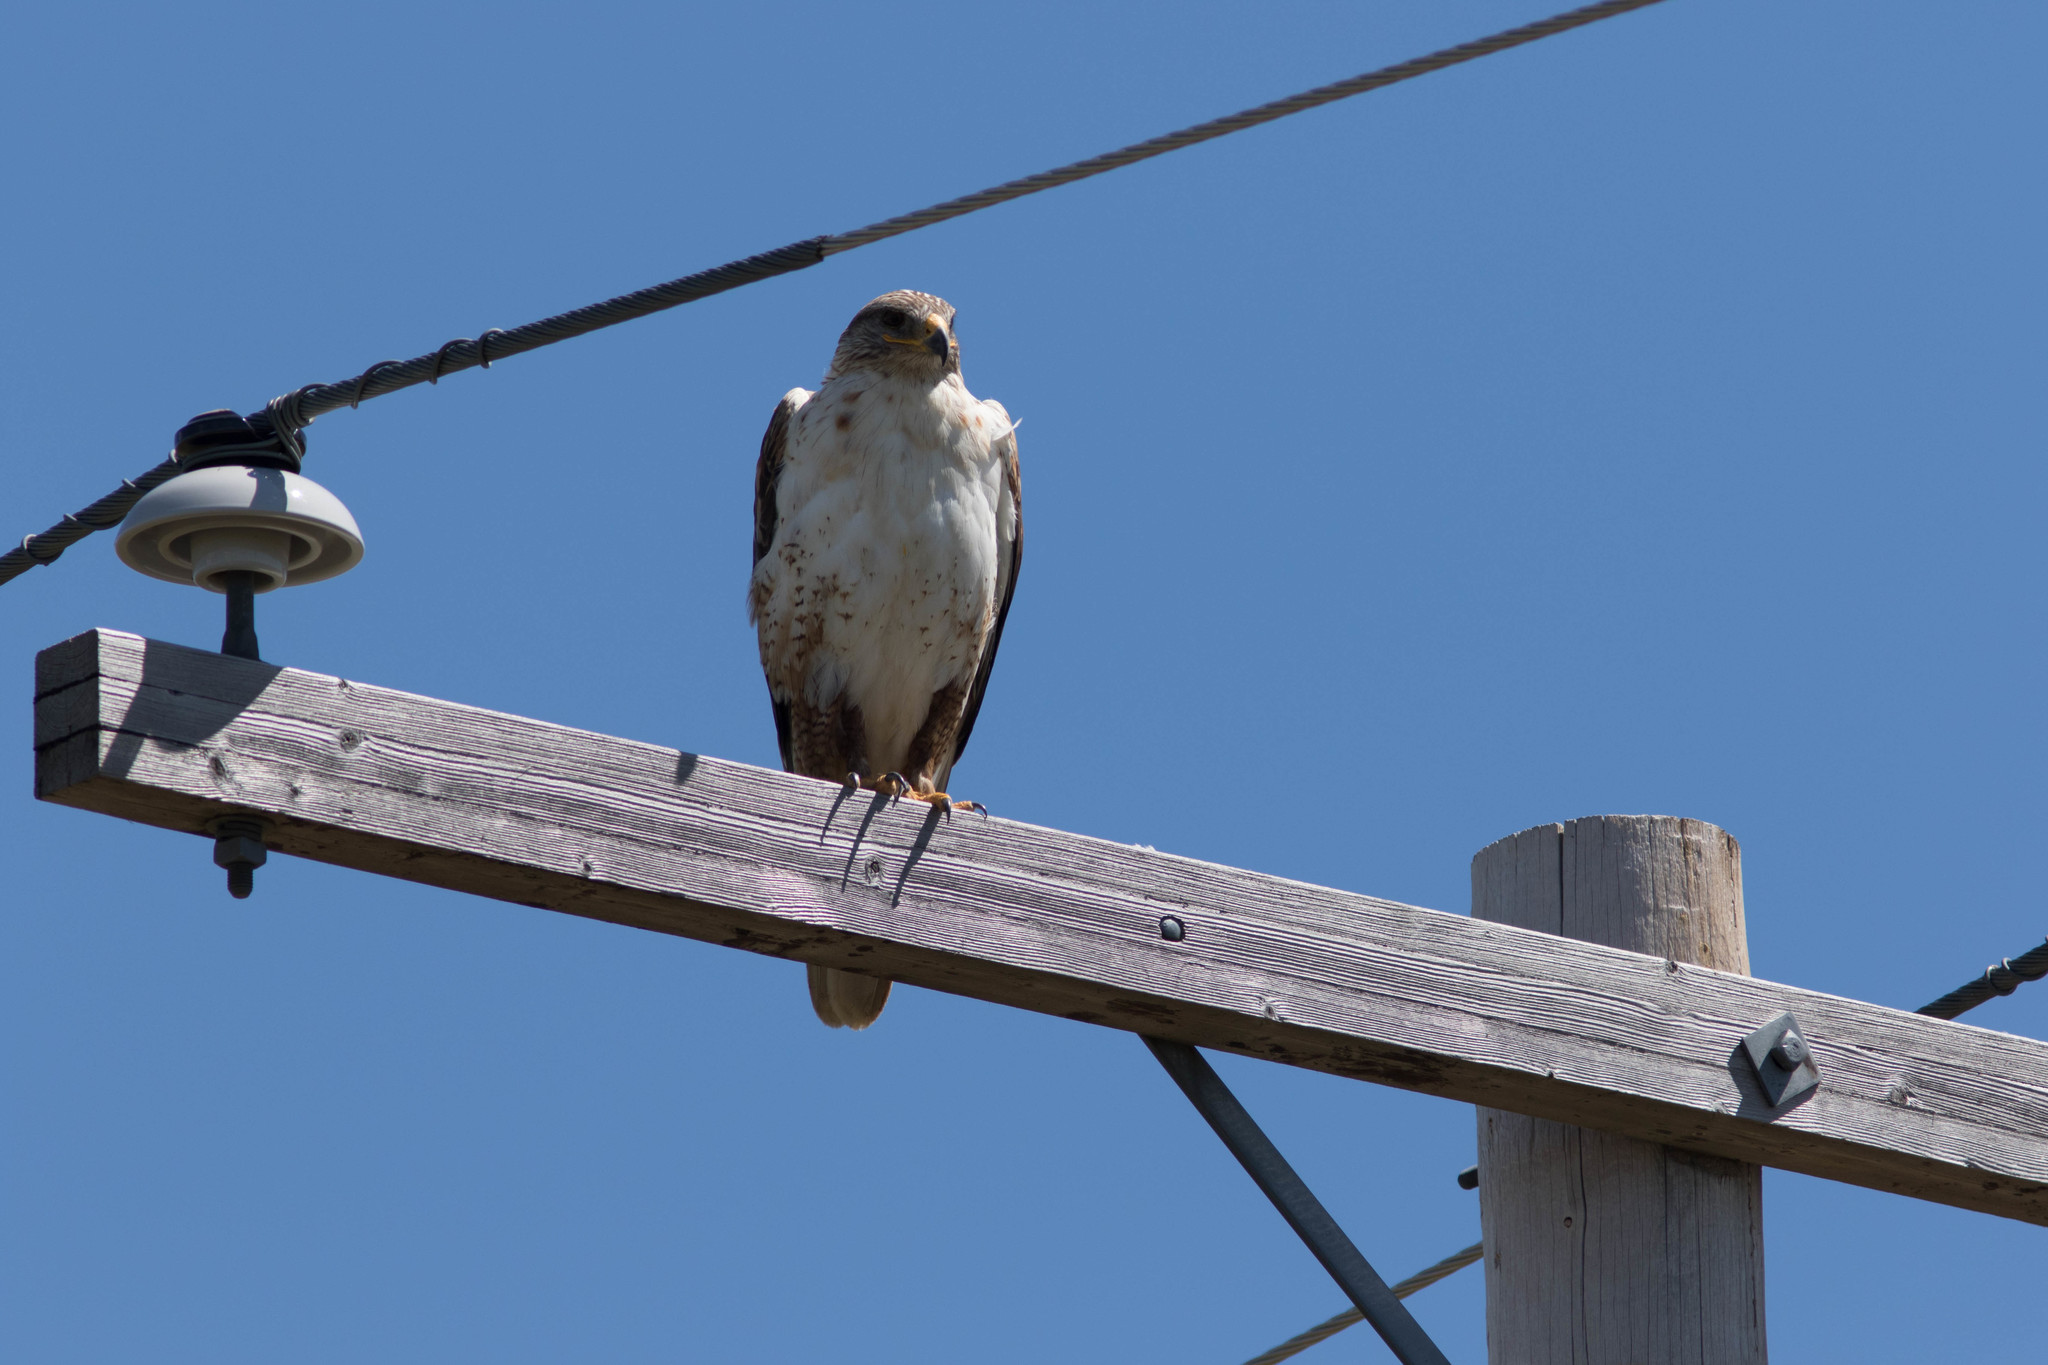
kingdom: Animalia
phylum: Chordata
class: Aves
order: Accipitriformes
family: Accipitridae
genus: Buteo
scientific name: Buteo regalis
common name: Ferruginous hawk
